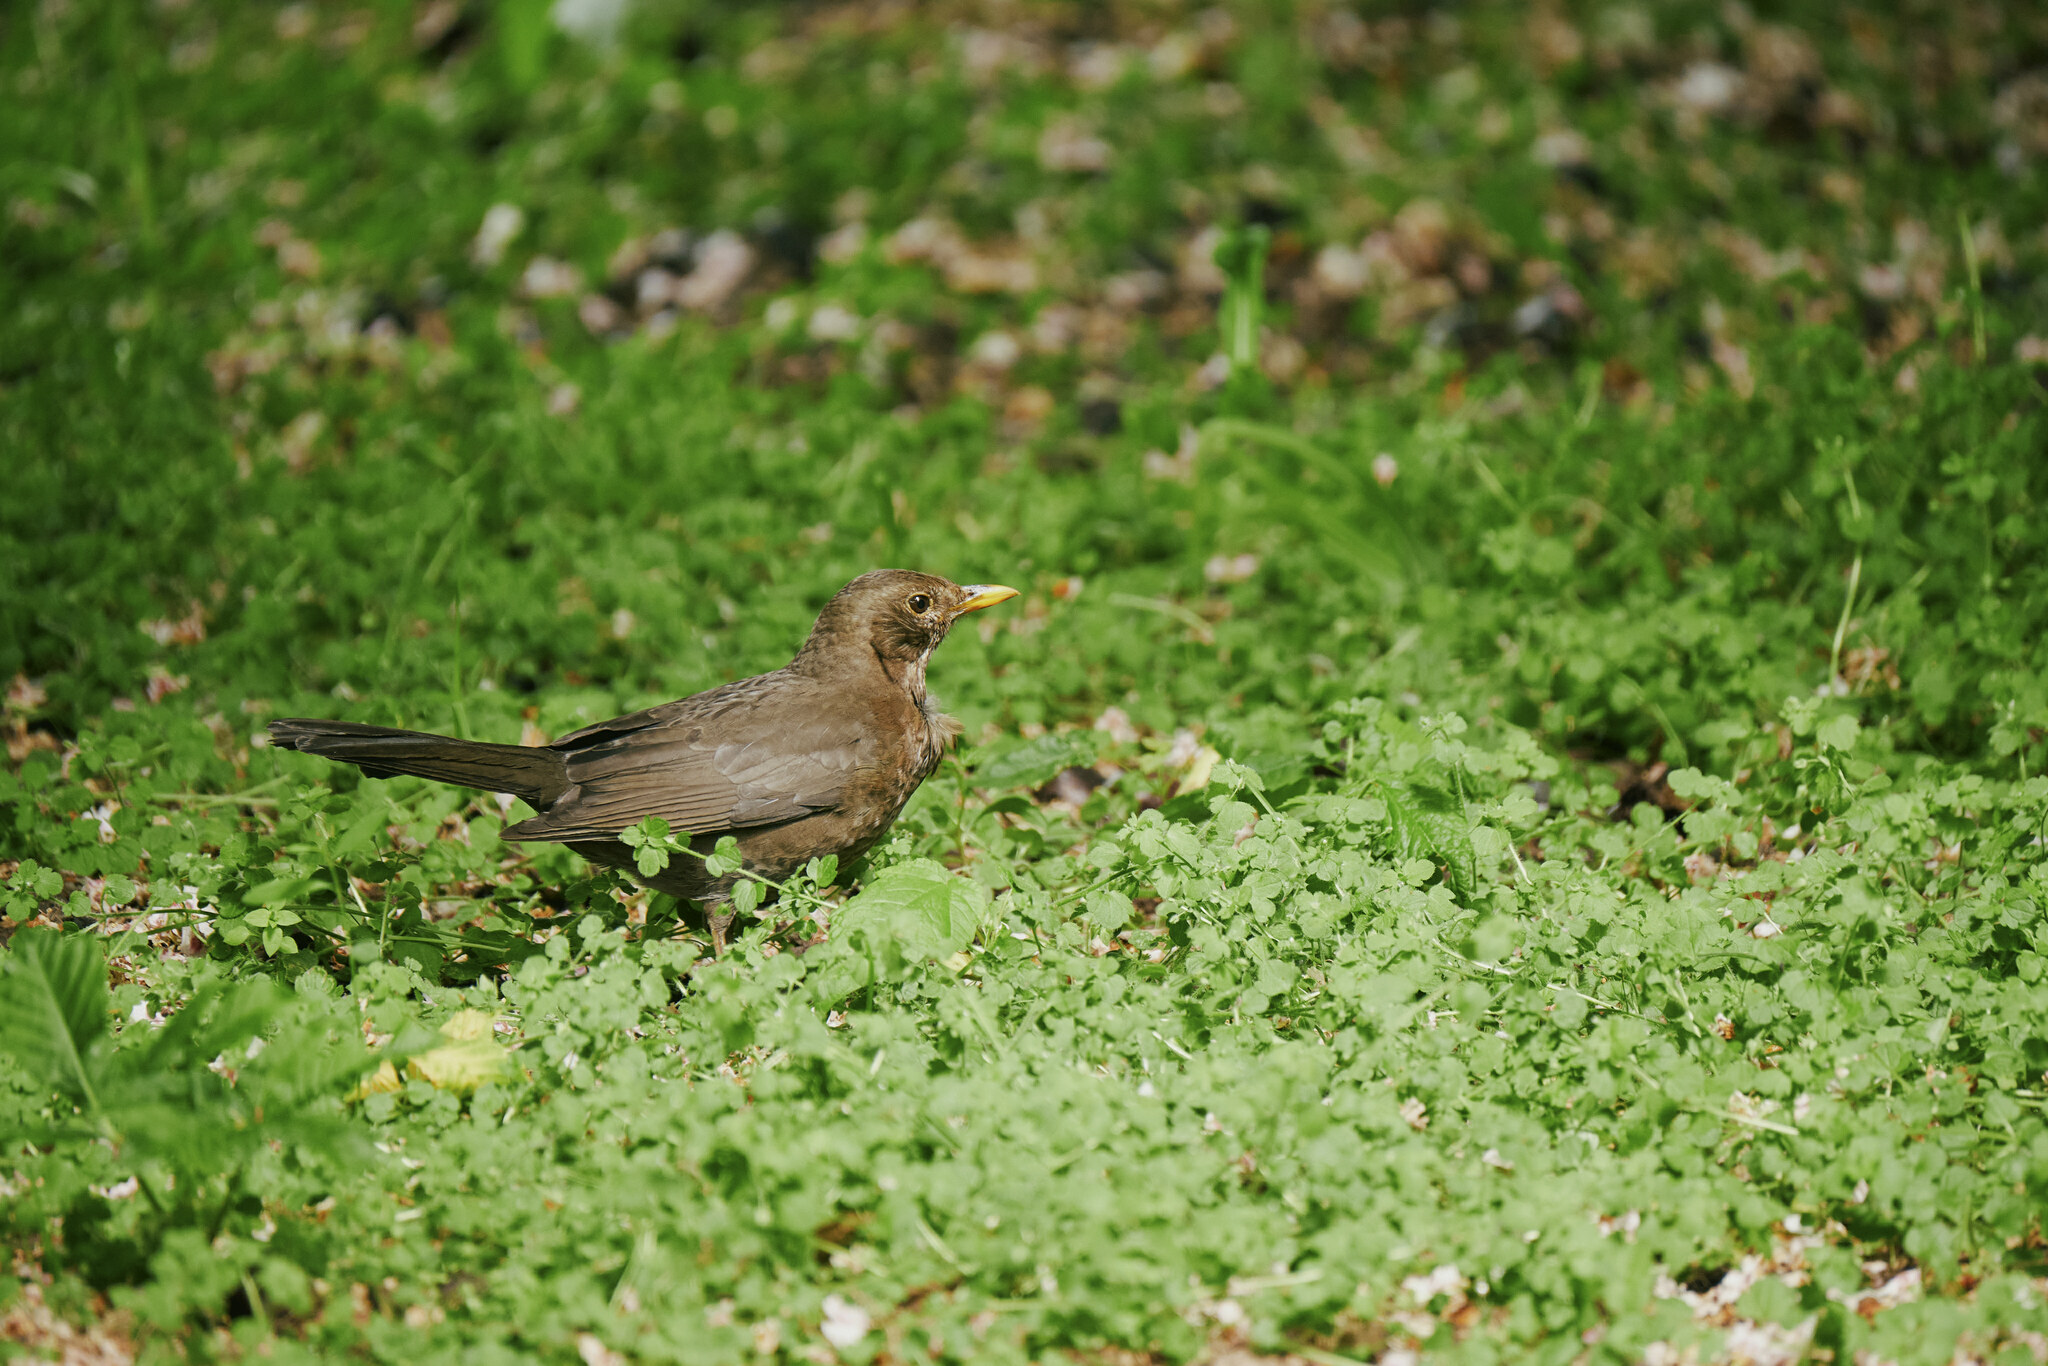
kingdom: Animalia
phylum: Chordata
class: Aves
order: Passeriformes
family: Turdidae
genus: Turdus
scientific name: Turdus merula
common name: Common blackbird
